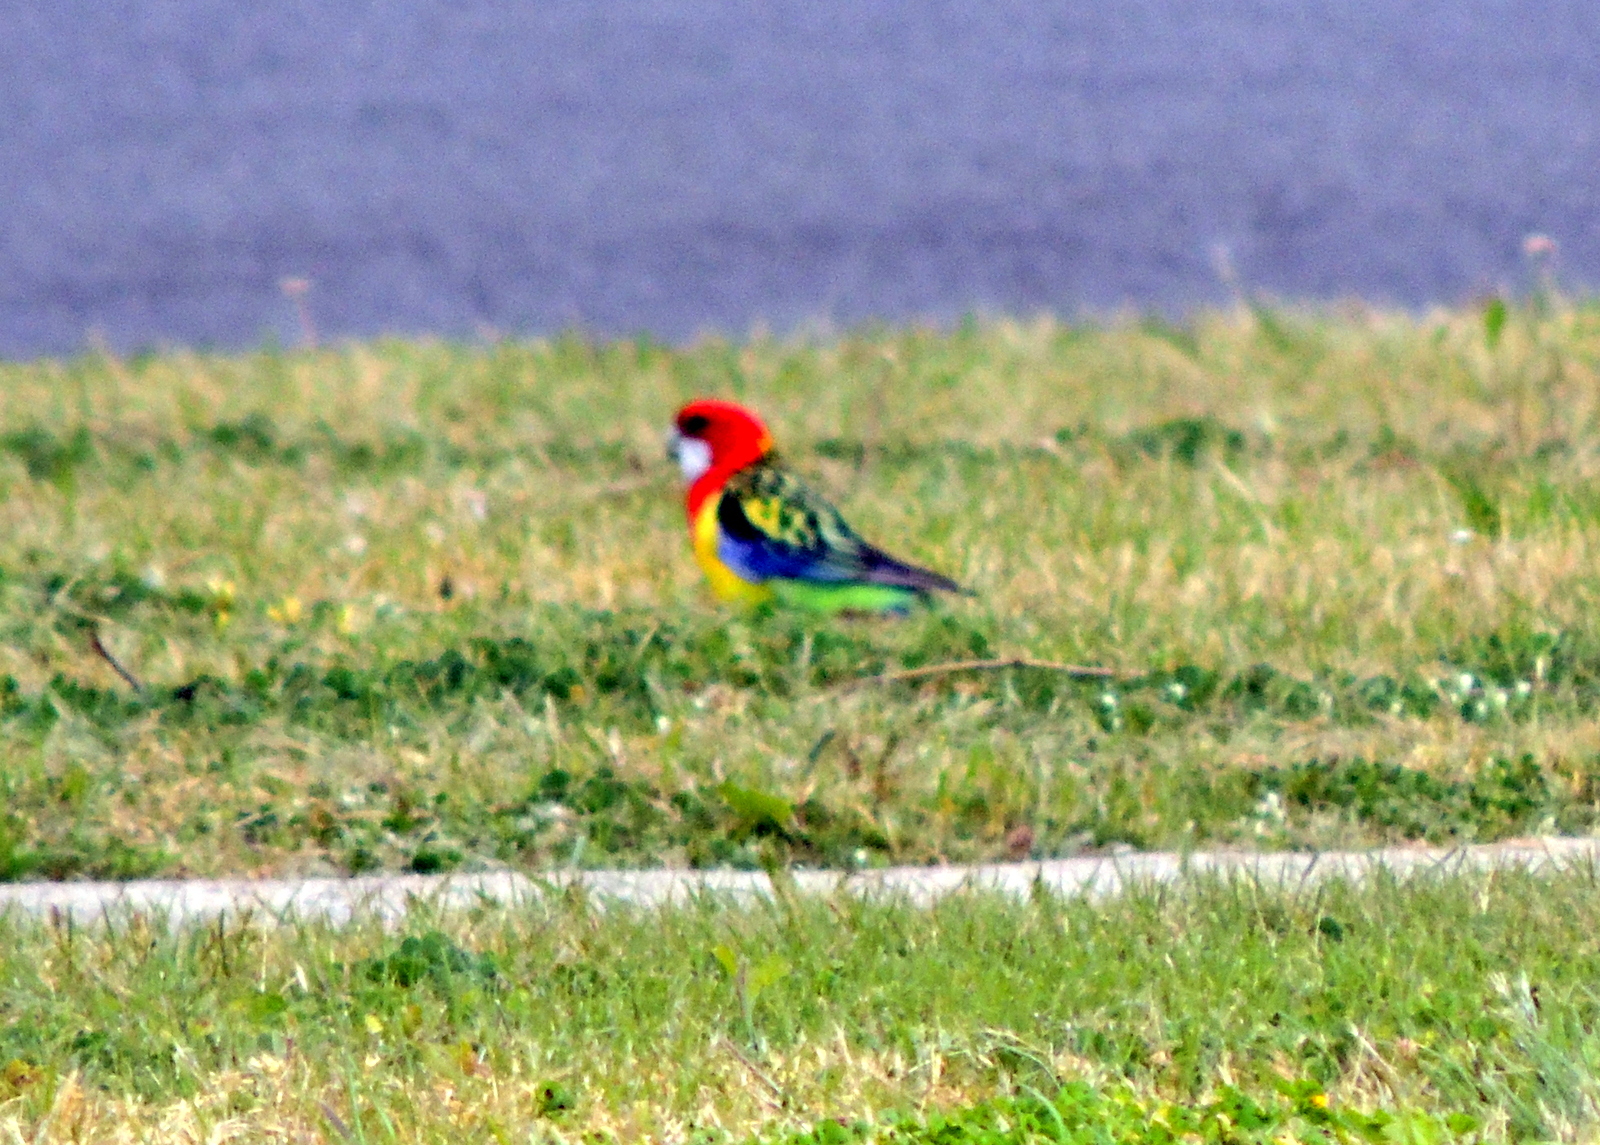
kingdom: Animalia
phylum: Chordata
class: Aves
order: Psittaciformes
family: Psittacidae
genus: Platycercus
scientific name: Platycercus eximius
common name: Eastern rosella
